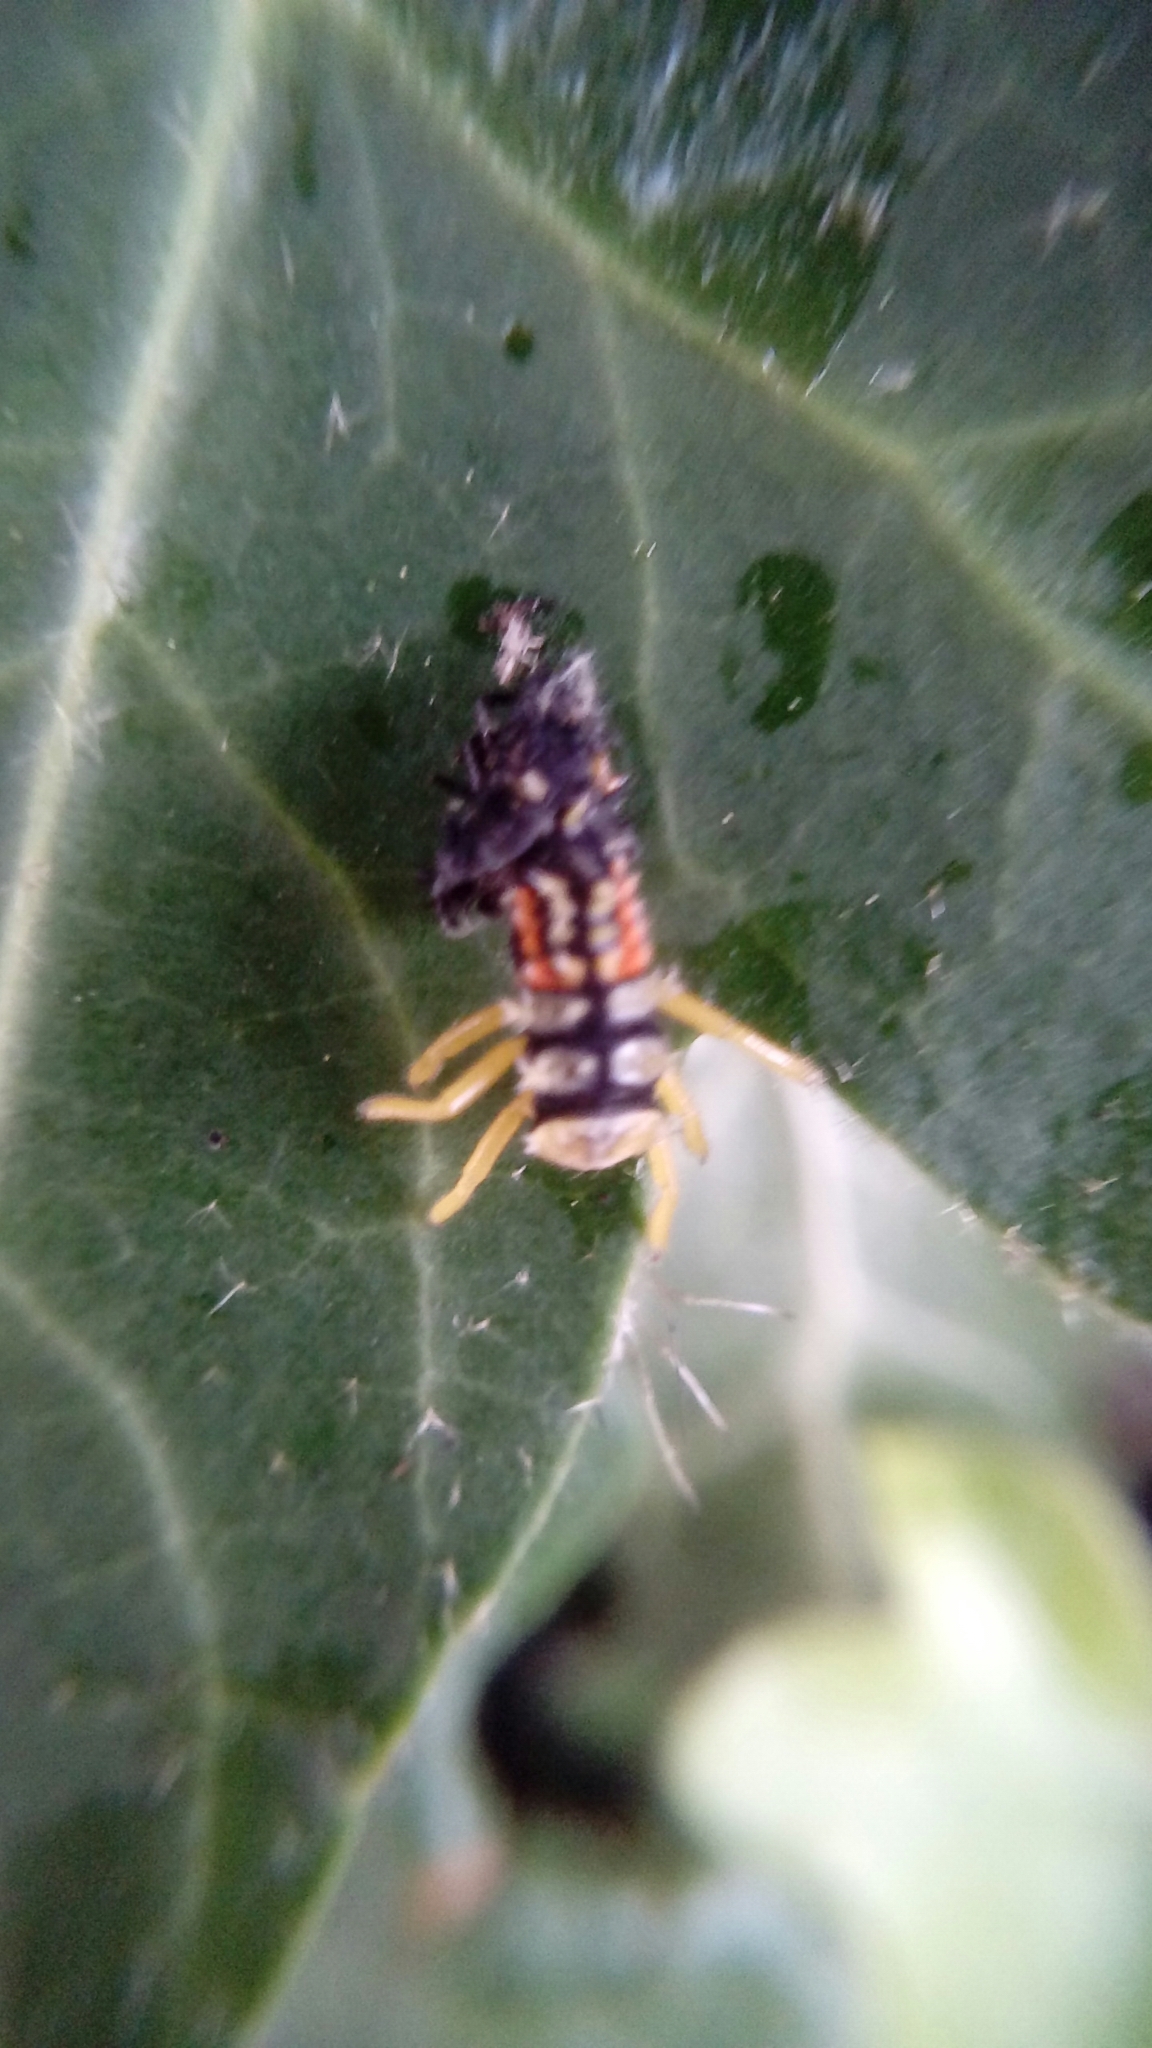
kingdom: Animalia
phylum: Arthropoda
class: Insecta
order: Coleoptera
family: Coccinellidae
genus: Harmonia
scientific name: Harmonia axyridis
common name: Harlequin ladybird
